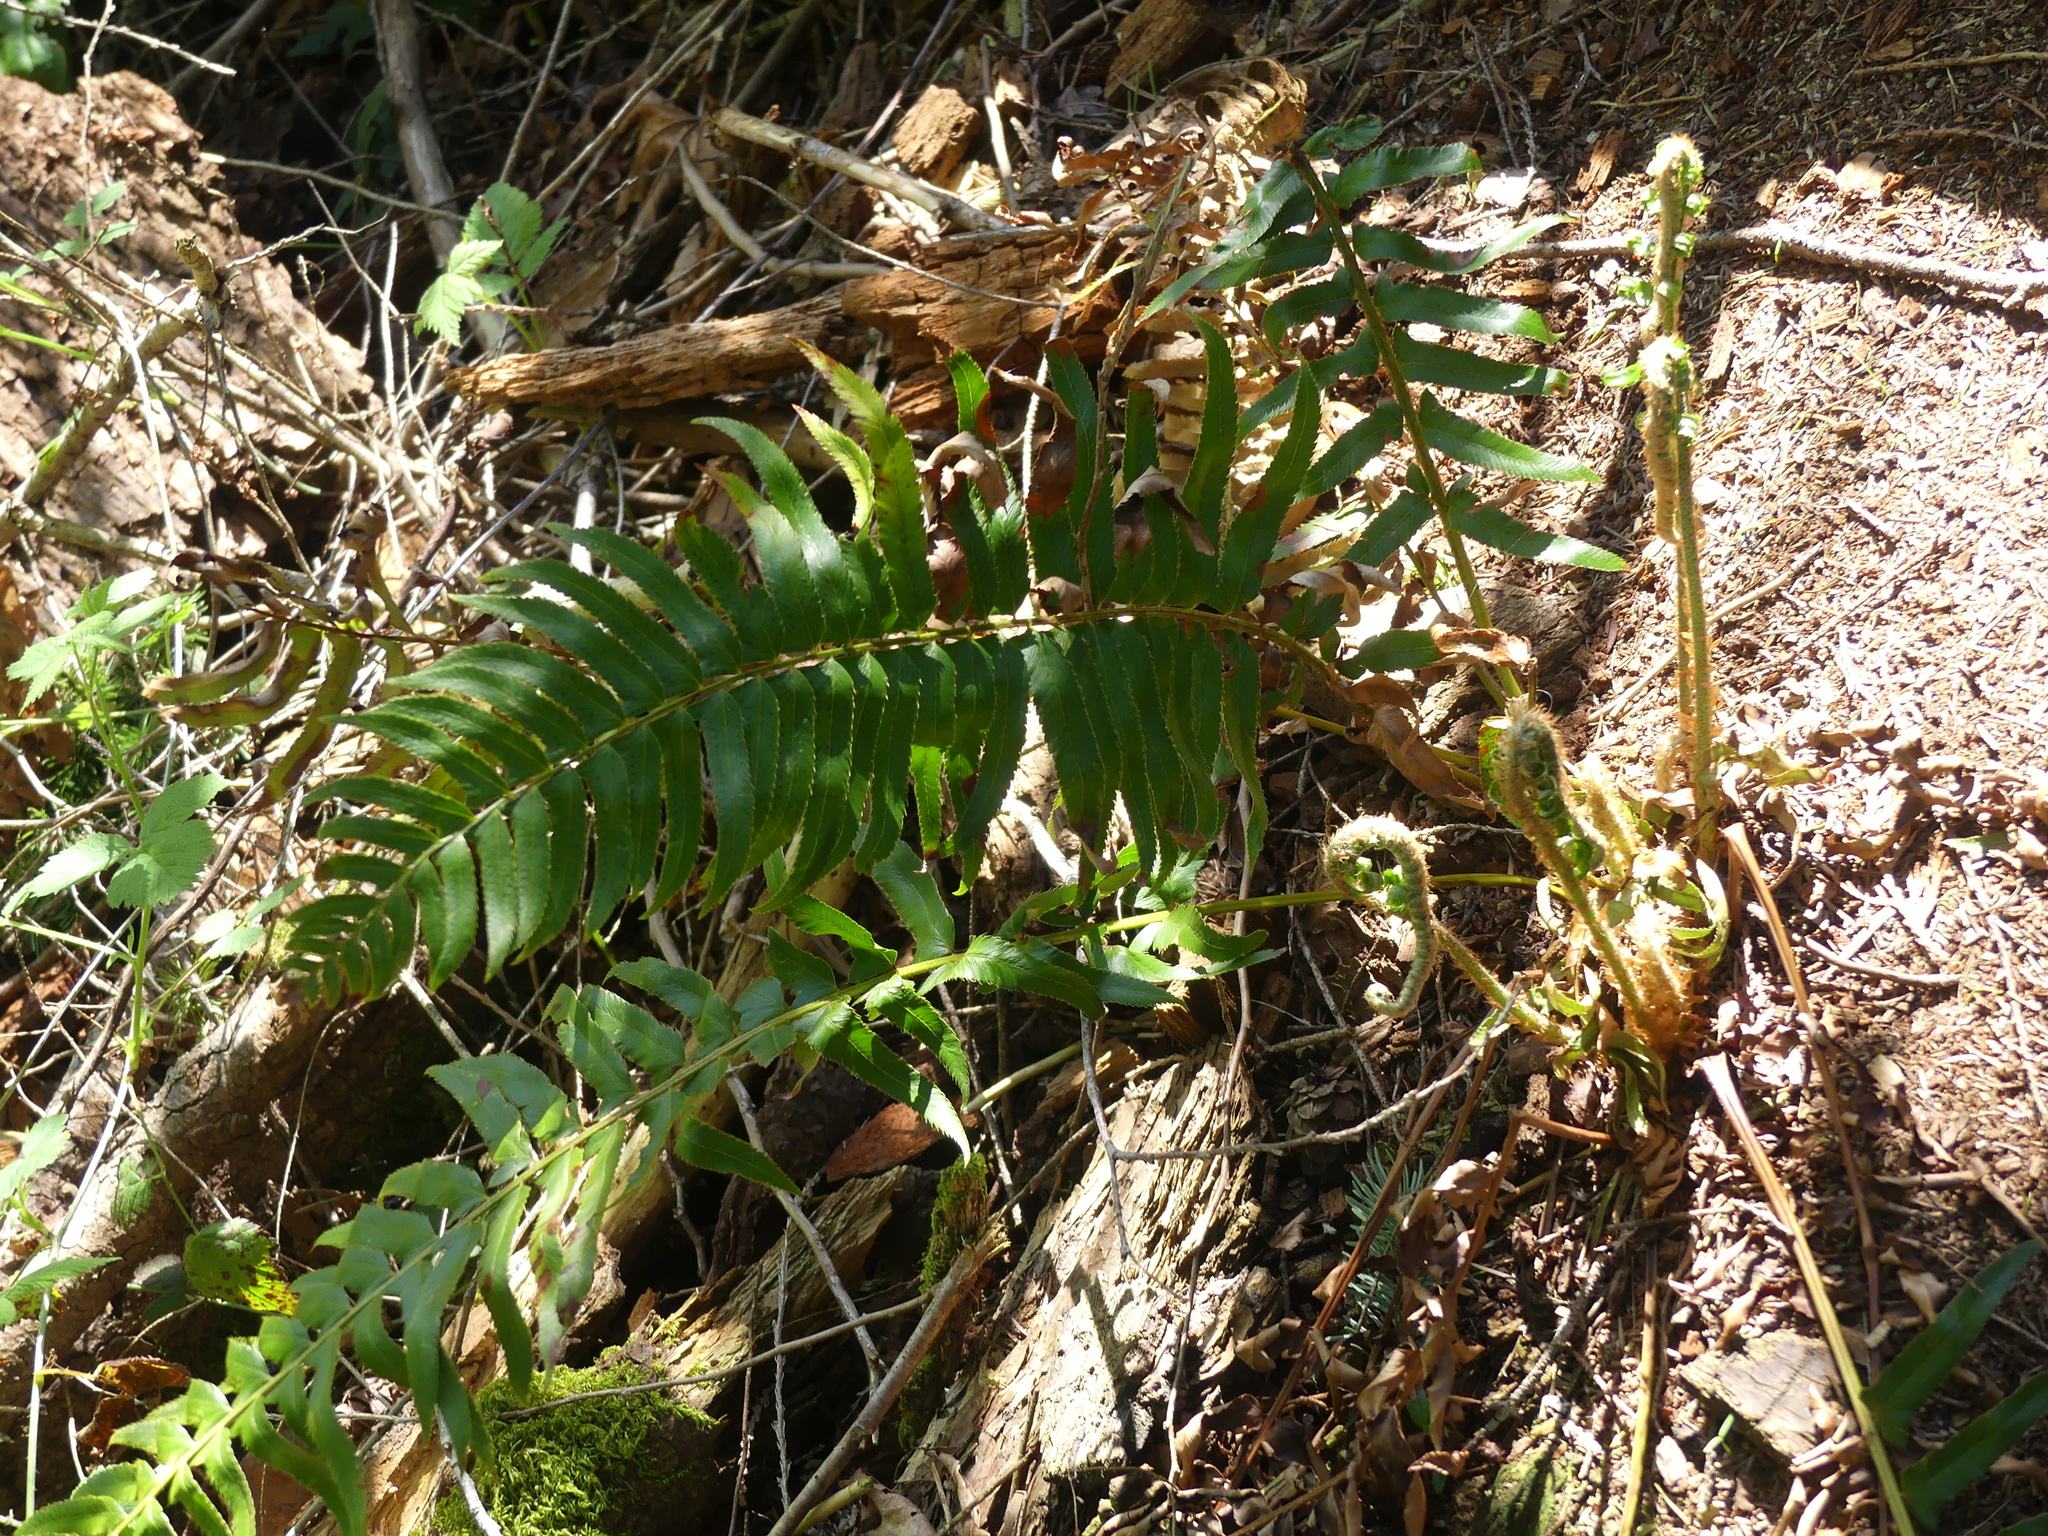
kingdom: Plantae
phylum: Tracheophyta
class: Polypodiopsida
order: Polypodiales
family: Dryopteridaceae
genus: Polystichum
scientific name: Polystichum munitum
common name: Western sword-fern
